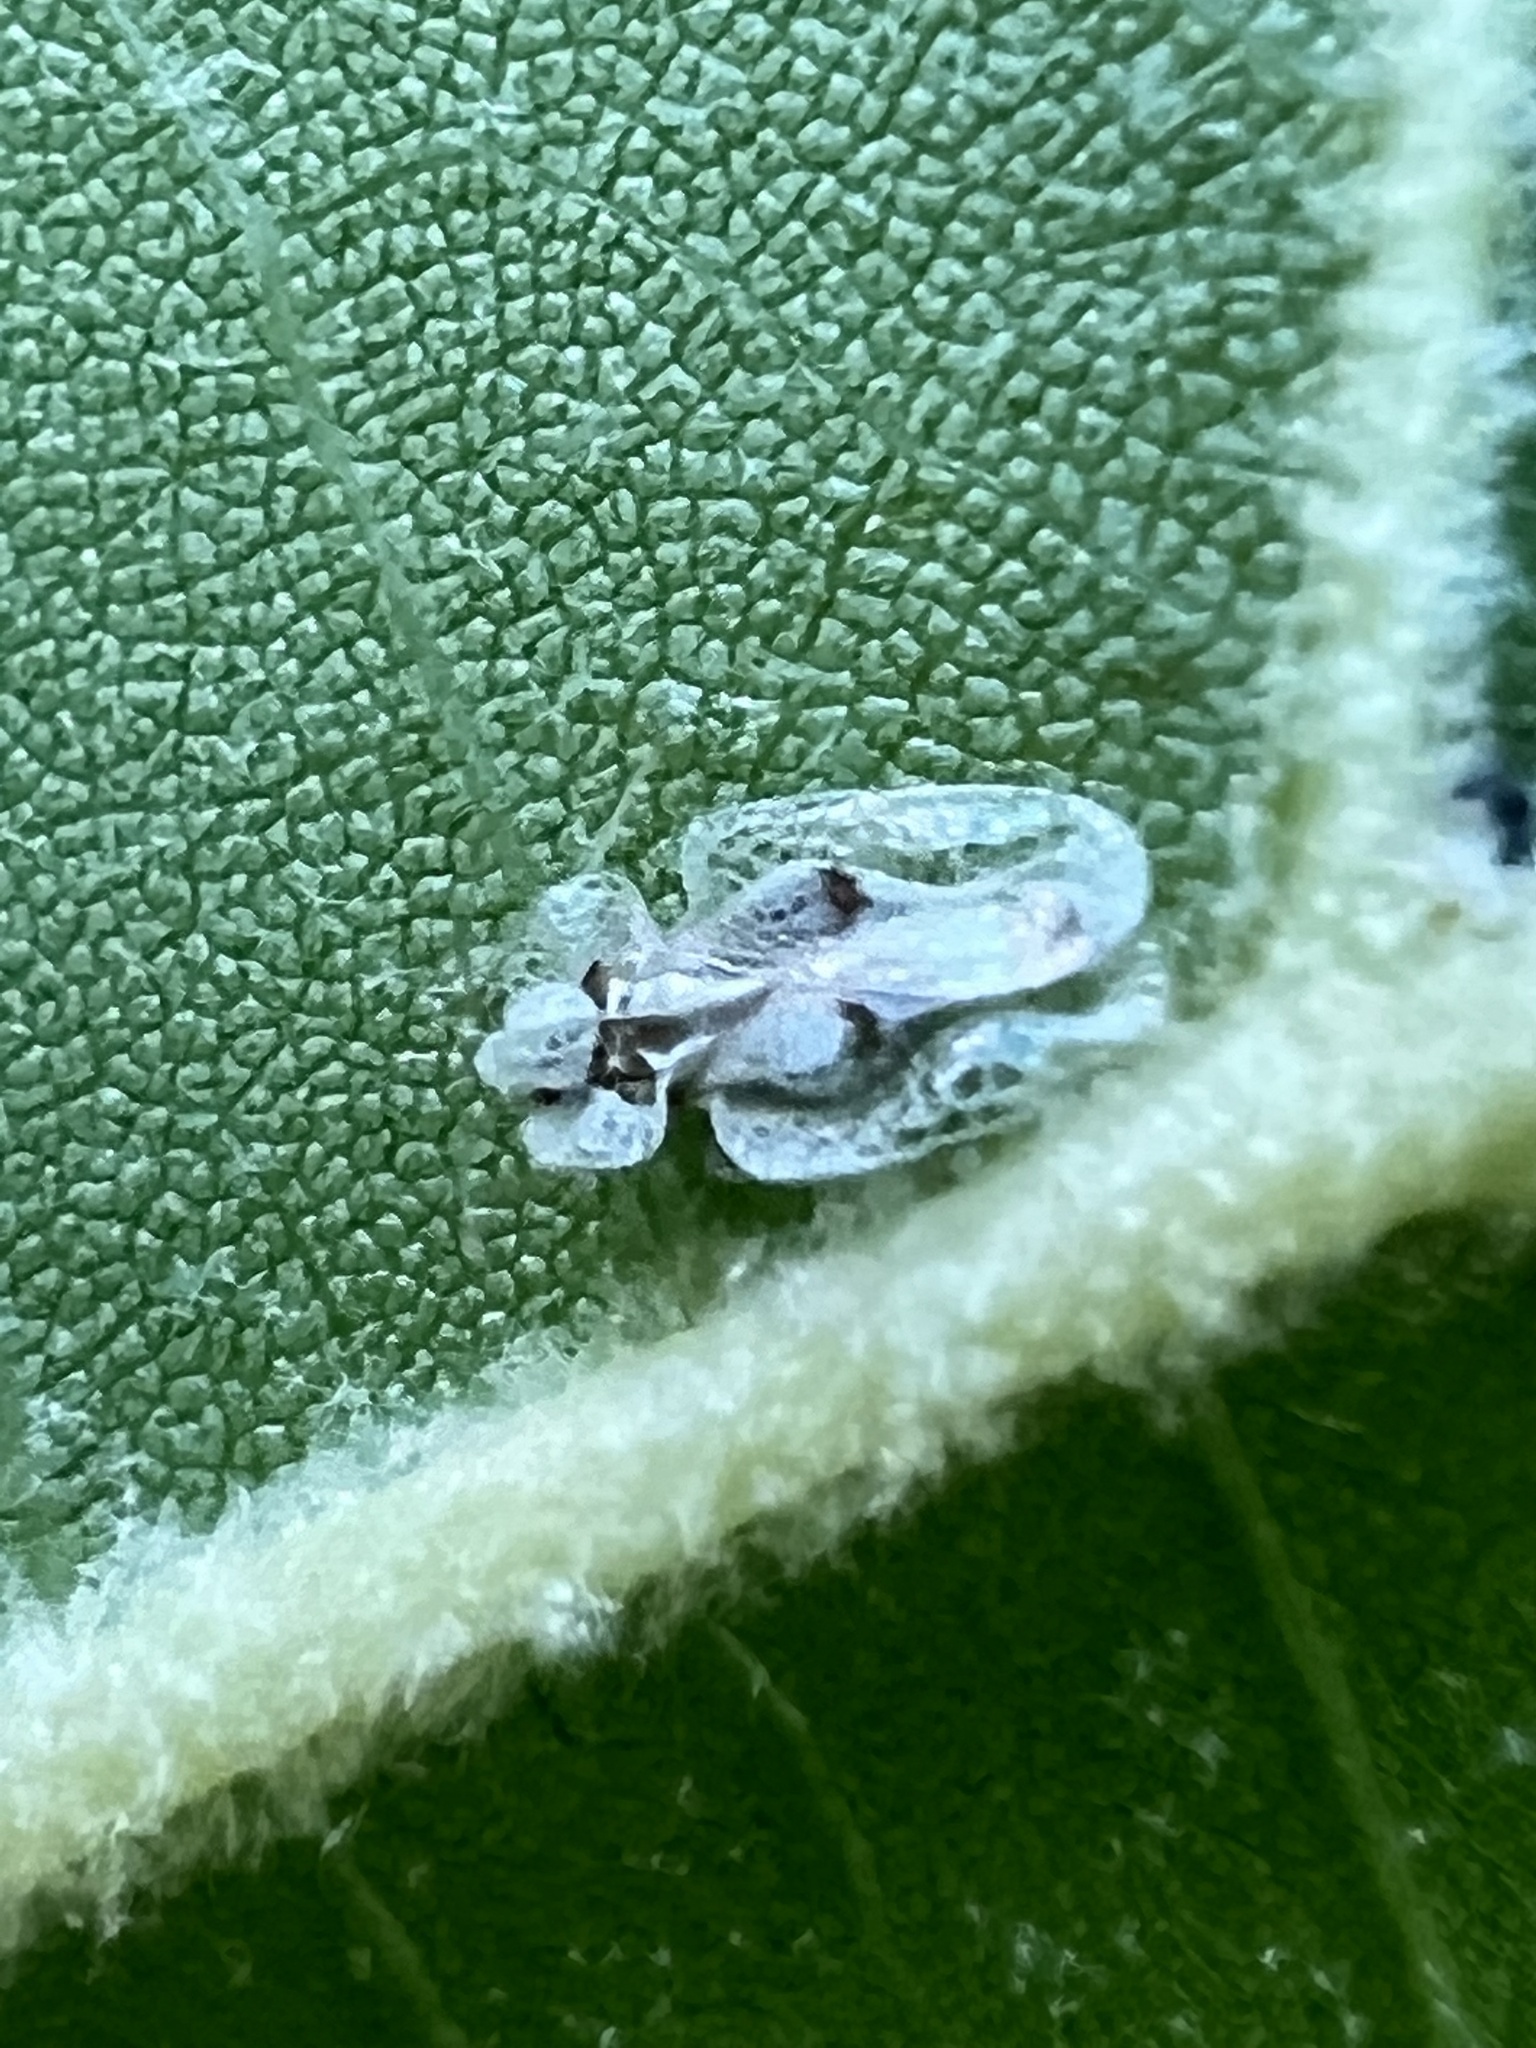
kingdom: Animalia
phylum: Arthropoda
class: Insecta
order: Hemiptera
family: Tingidae
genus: Corythucha
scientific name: Corythucha ciliata
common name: Sycamore lace bug
